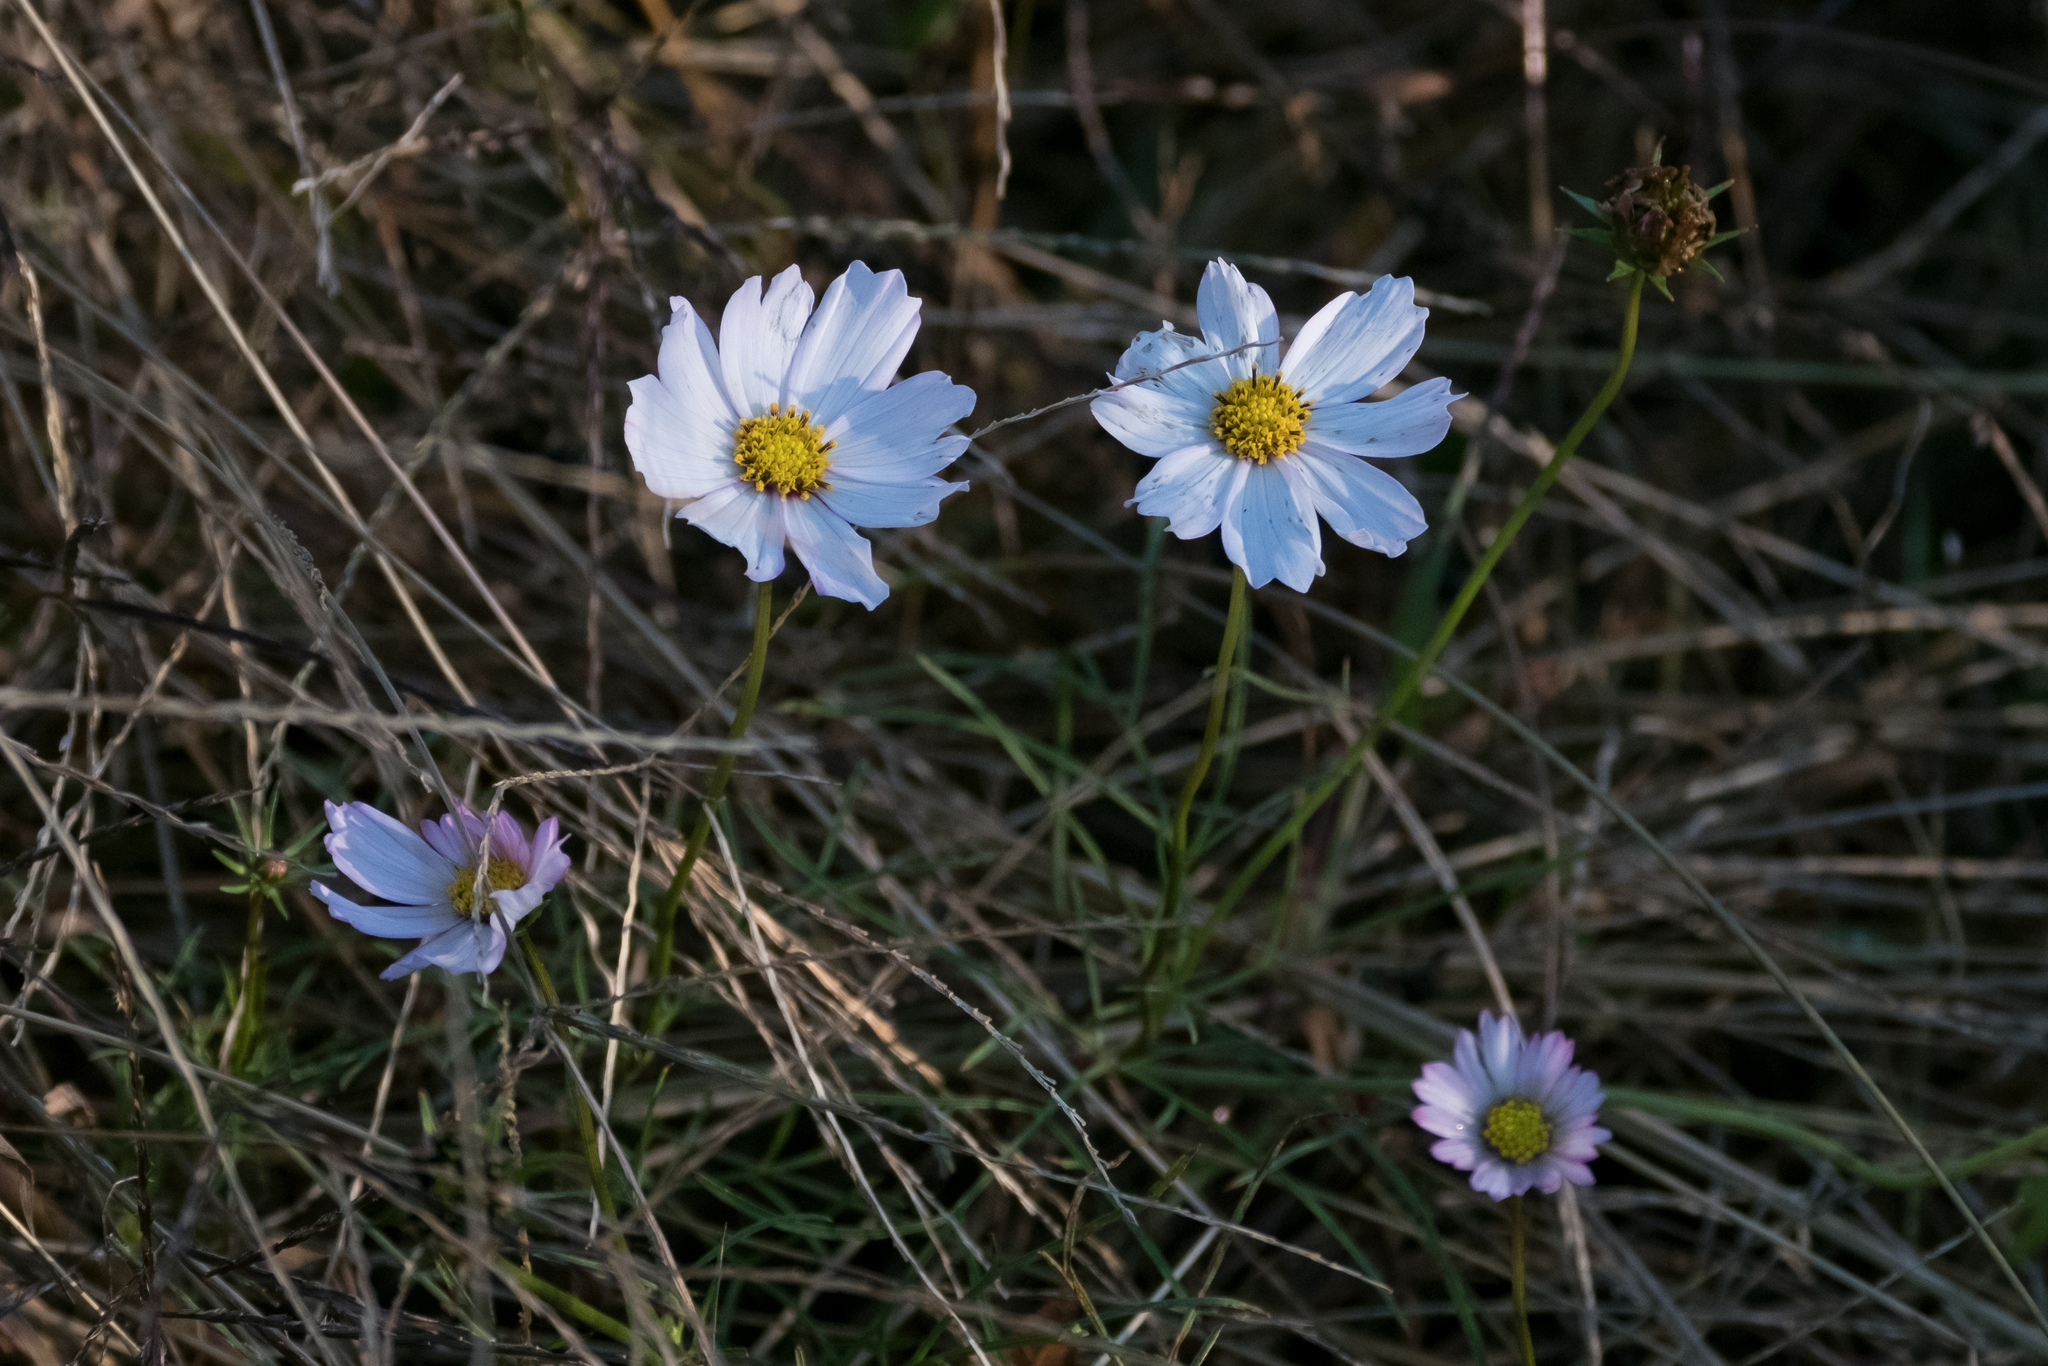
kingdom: Plantae
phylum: Tracheophyta
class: Magnoliopsida
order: Asterales
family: Asteraceae
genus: Cosmos
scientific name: Cosmos bipinnatus
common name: Garden cosmos
